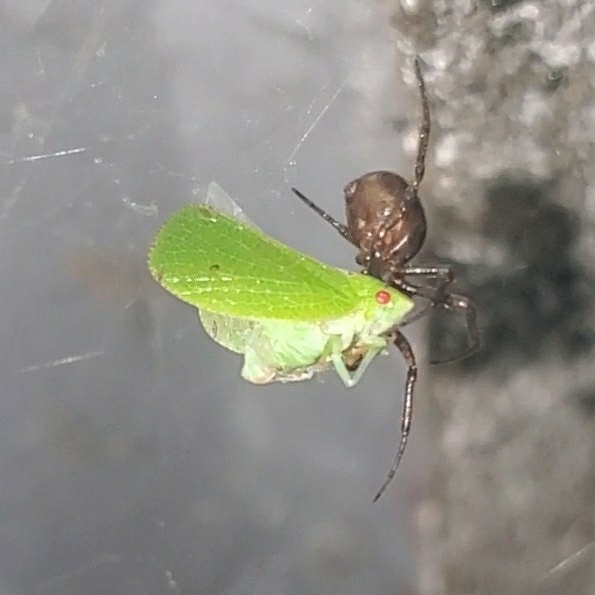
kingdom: Animalia
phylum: Arthropoda
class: Insecta
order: Hemiptera
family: Acanaloniidae
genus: Acanalonia
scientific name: Acanalonia conica
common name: Green cone-headed planthopper
